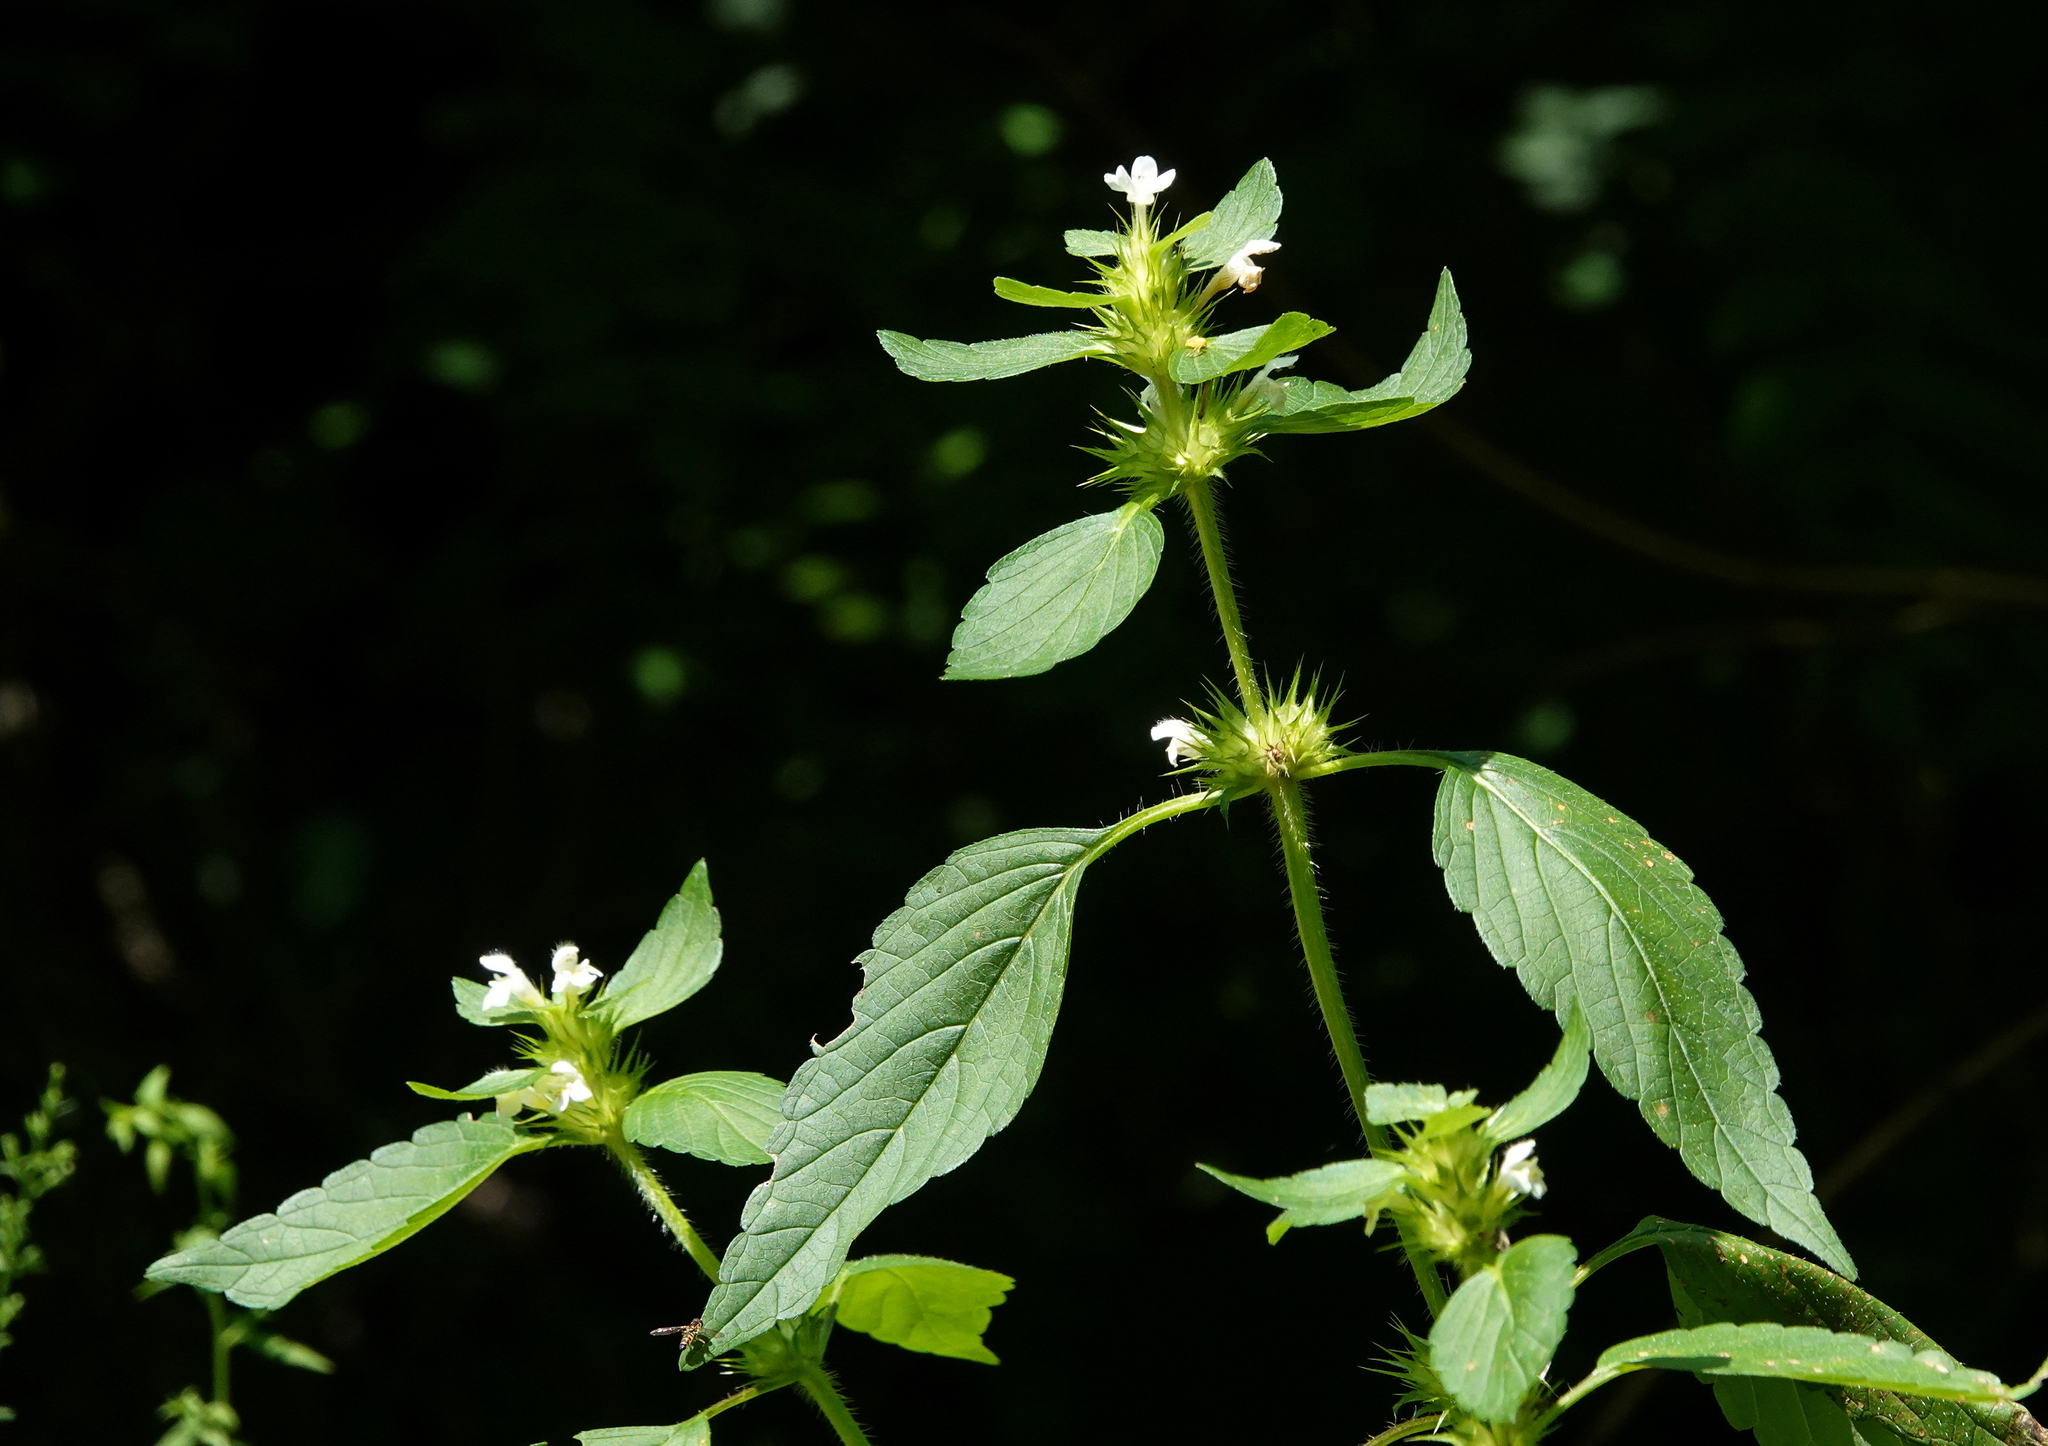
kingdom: Plantae
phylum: Tracheophyta
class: Magnoliopsida
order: Lamiales
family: Lamiaceae
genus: Galeopsis
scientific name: Galeopsis tetrahit
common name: Common hemp-nettle
